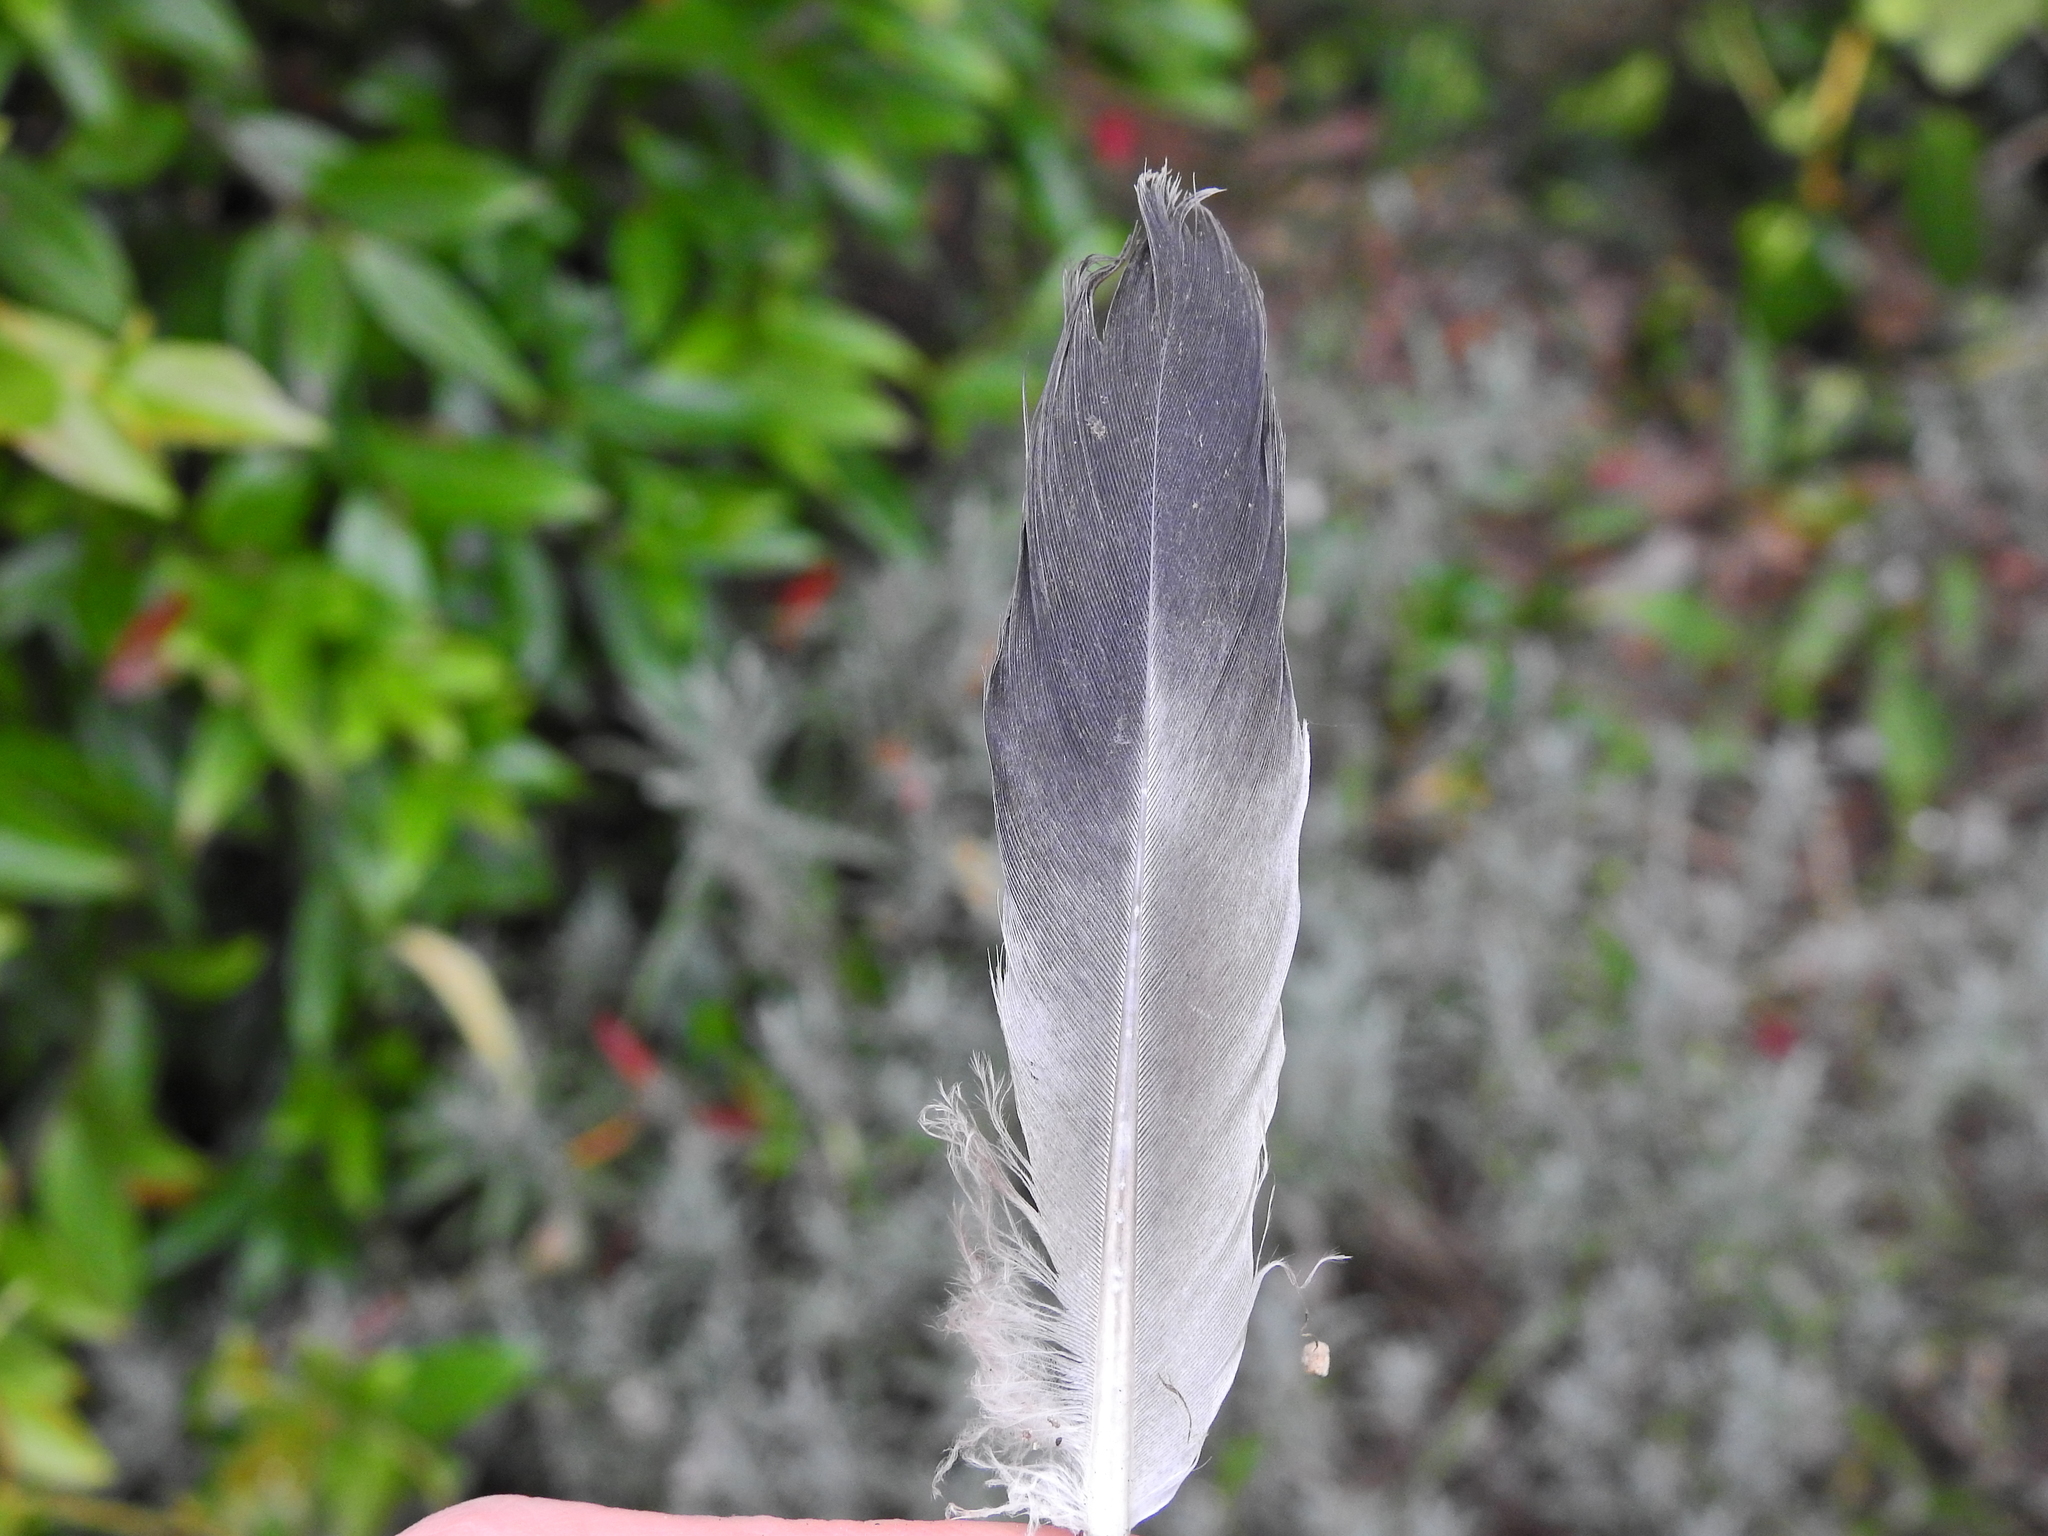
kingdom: Animalia
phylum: Chordata
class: Aves
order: Columbiformes
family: Columbidae
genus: Columba
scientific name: Columba livia
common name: Rock pigeon
